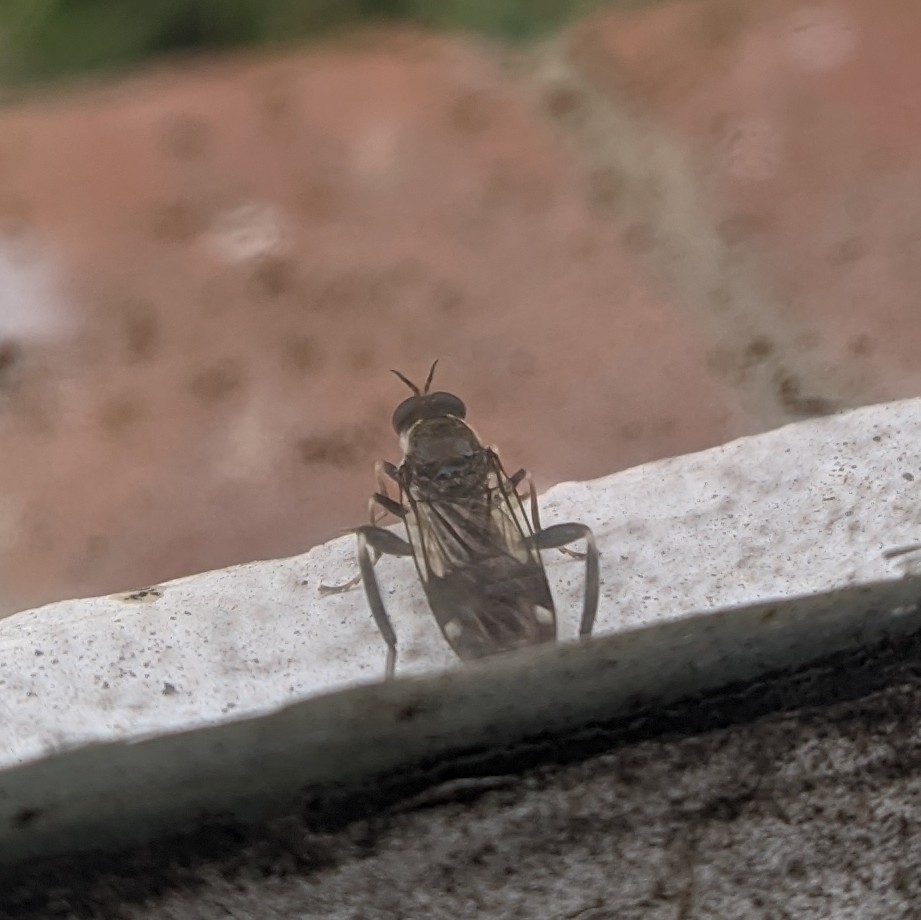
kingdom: Animalia
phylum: Arthropoda
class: Insecta
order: Diptera
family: Stratiomyidae
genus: Exaireta
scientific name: Exaireta spinigera
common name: Blue soldier fly
